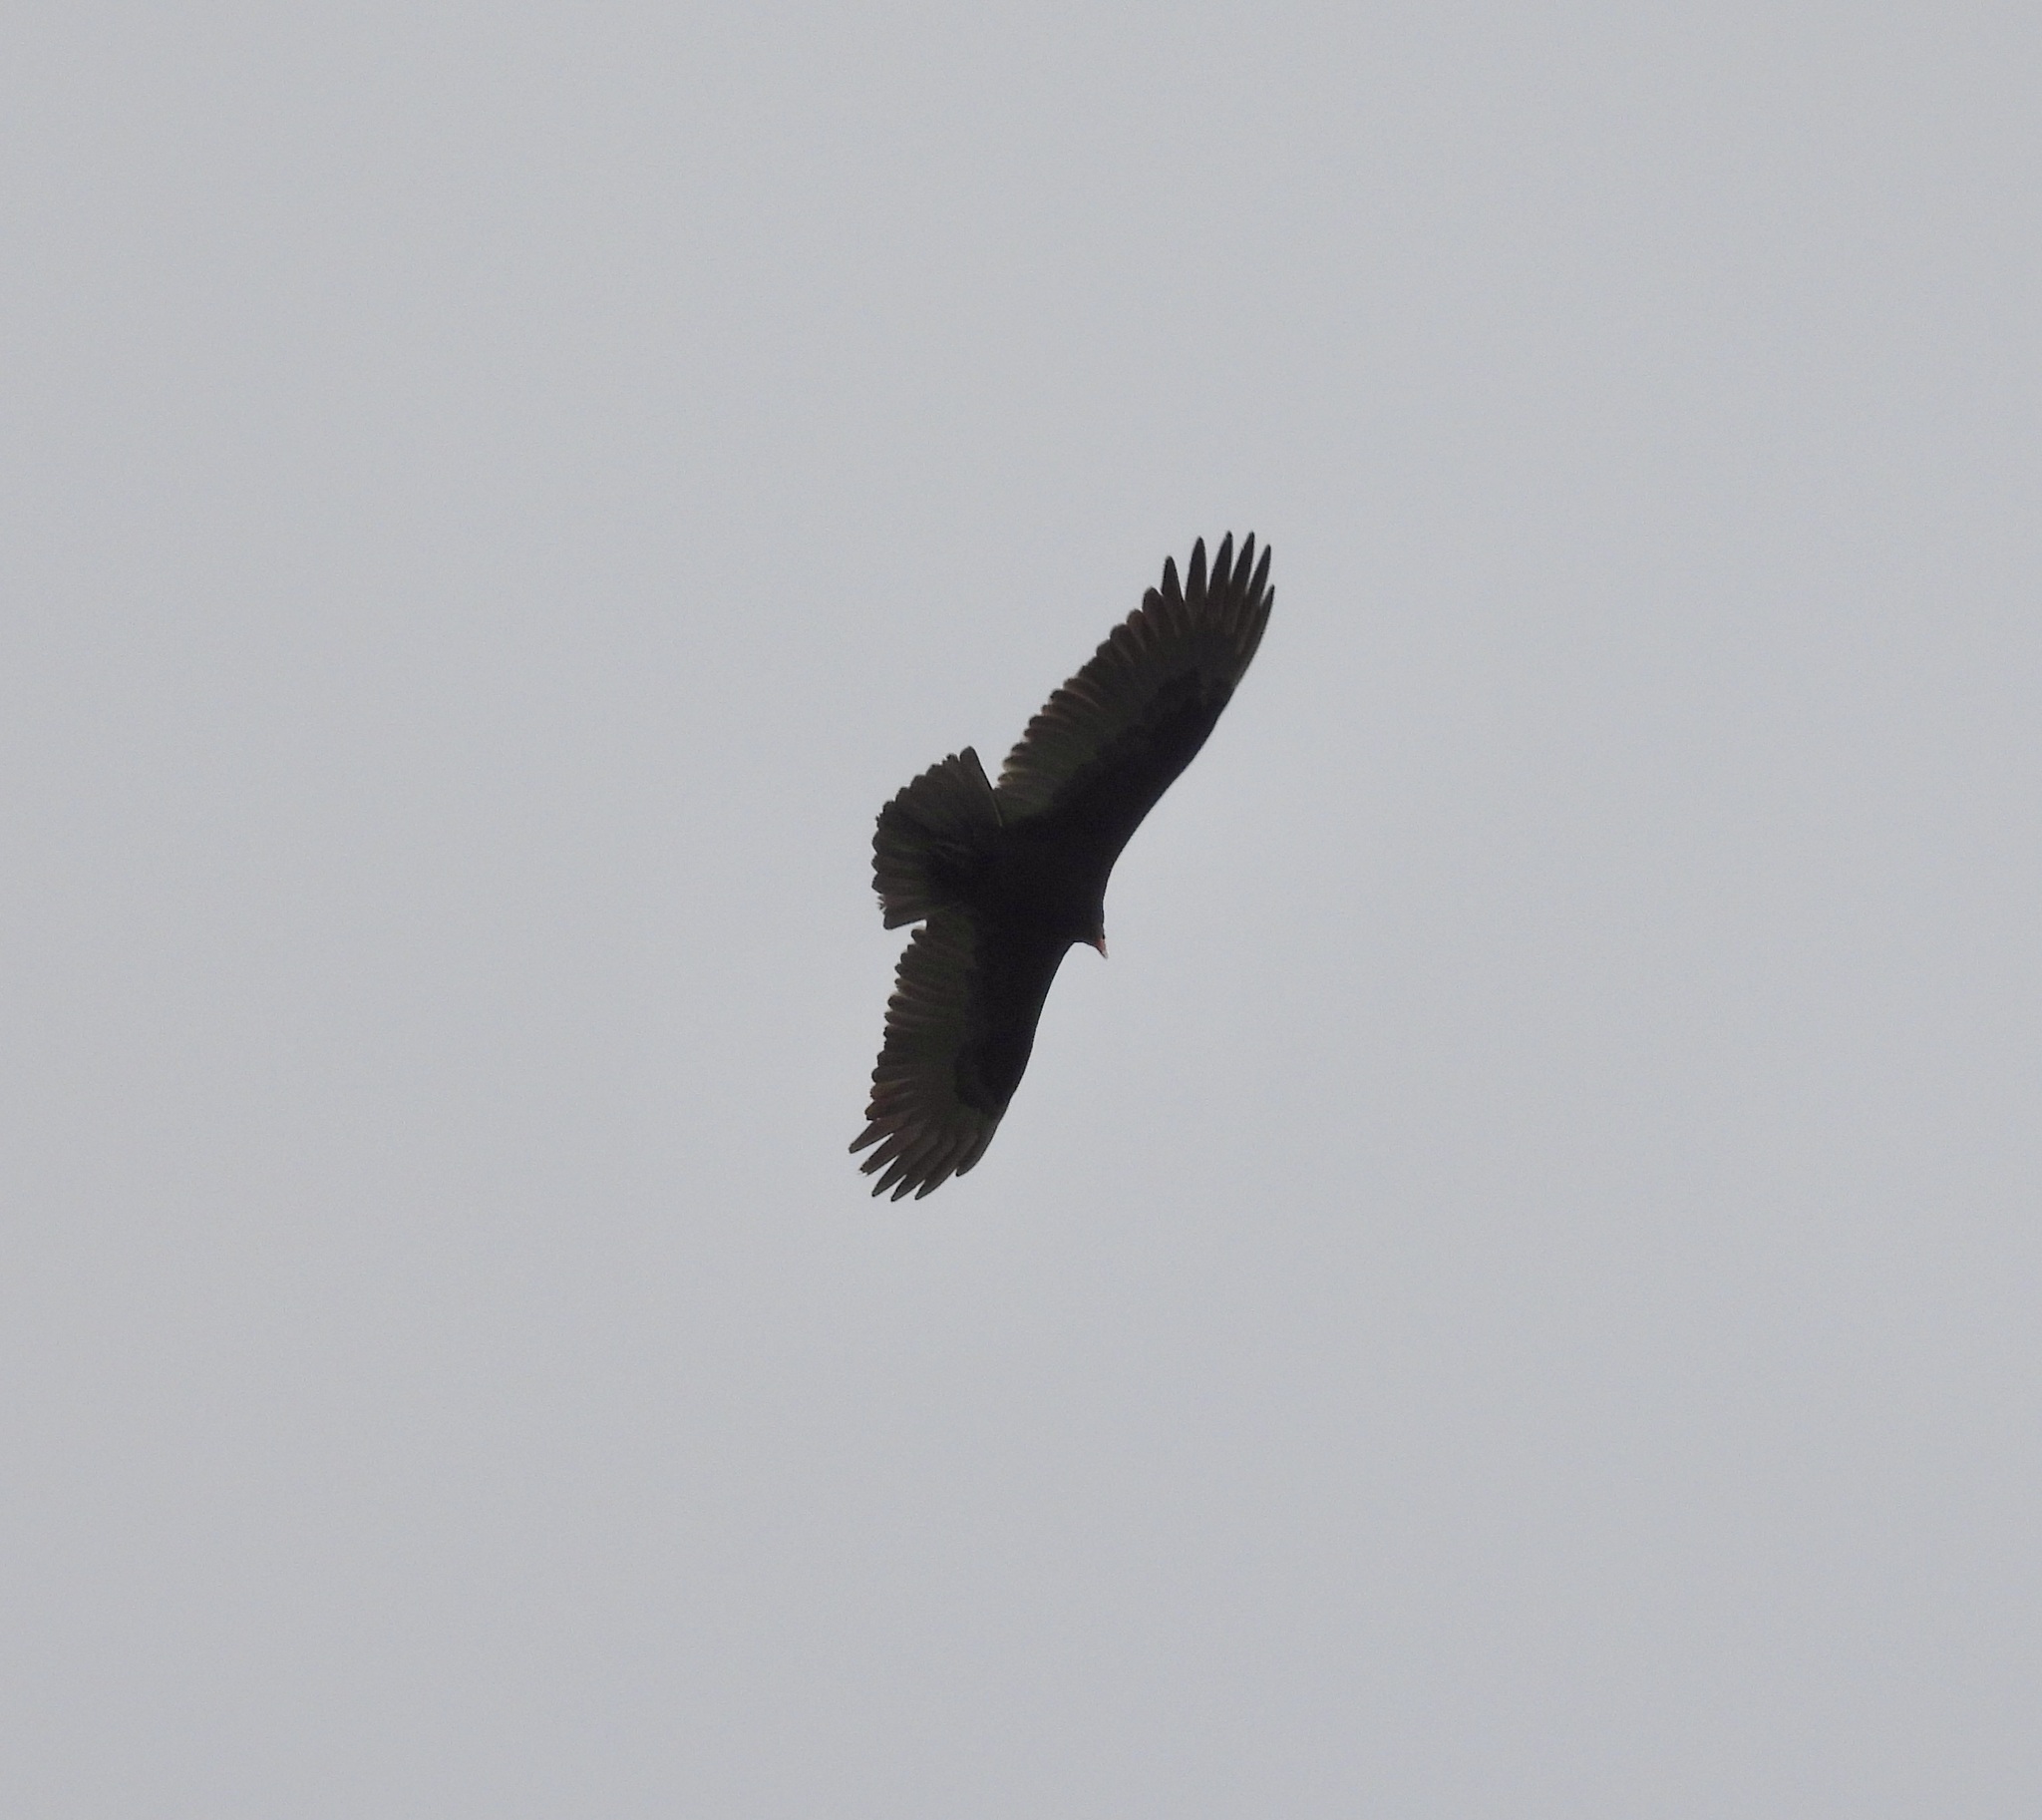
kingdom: Animalia
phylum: Chordata
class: Aves
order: Accipitriformes
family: Cathartidae
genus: Cathartes
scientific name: Cathartes aura
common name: Turkey vulture
